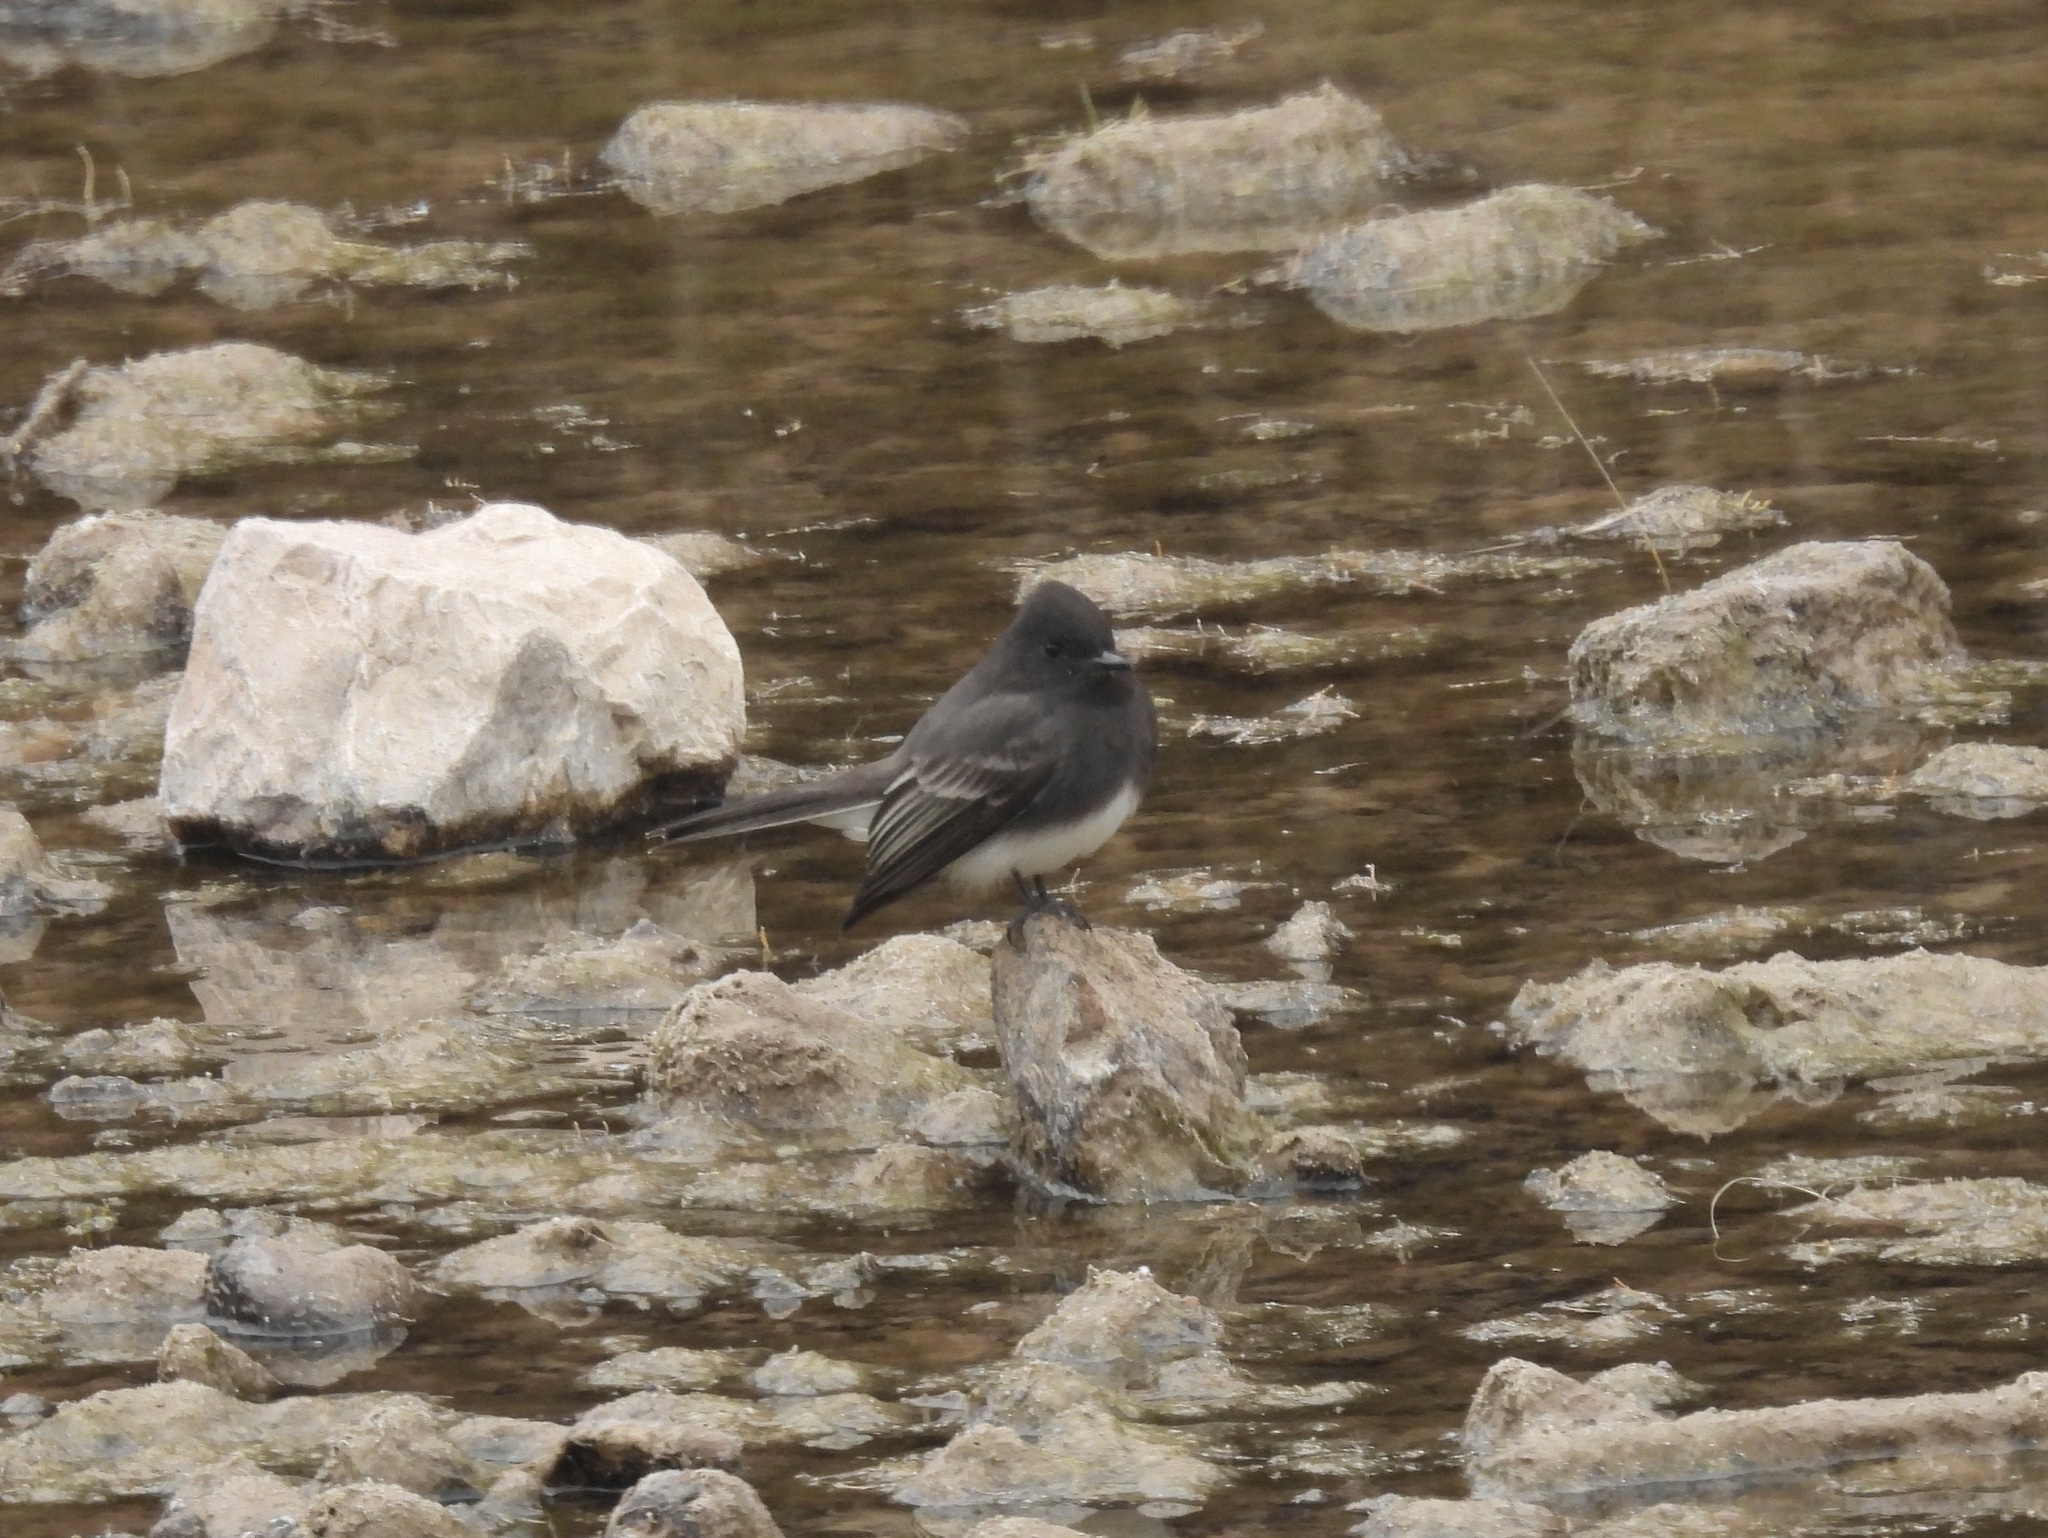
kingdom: Animalia
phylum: Chordata
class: Aves
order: Passeriformes
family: Tyrannidae
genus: Sayornis
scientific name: Sayornis nigricans
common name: Black phoebe
